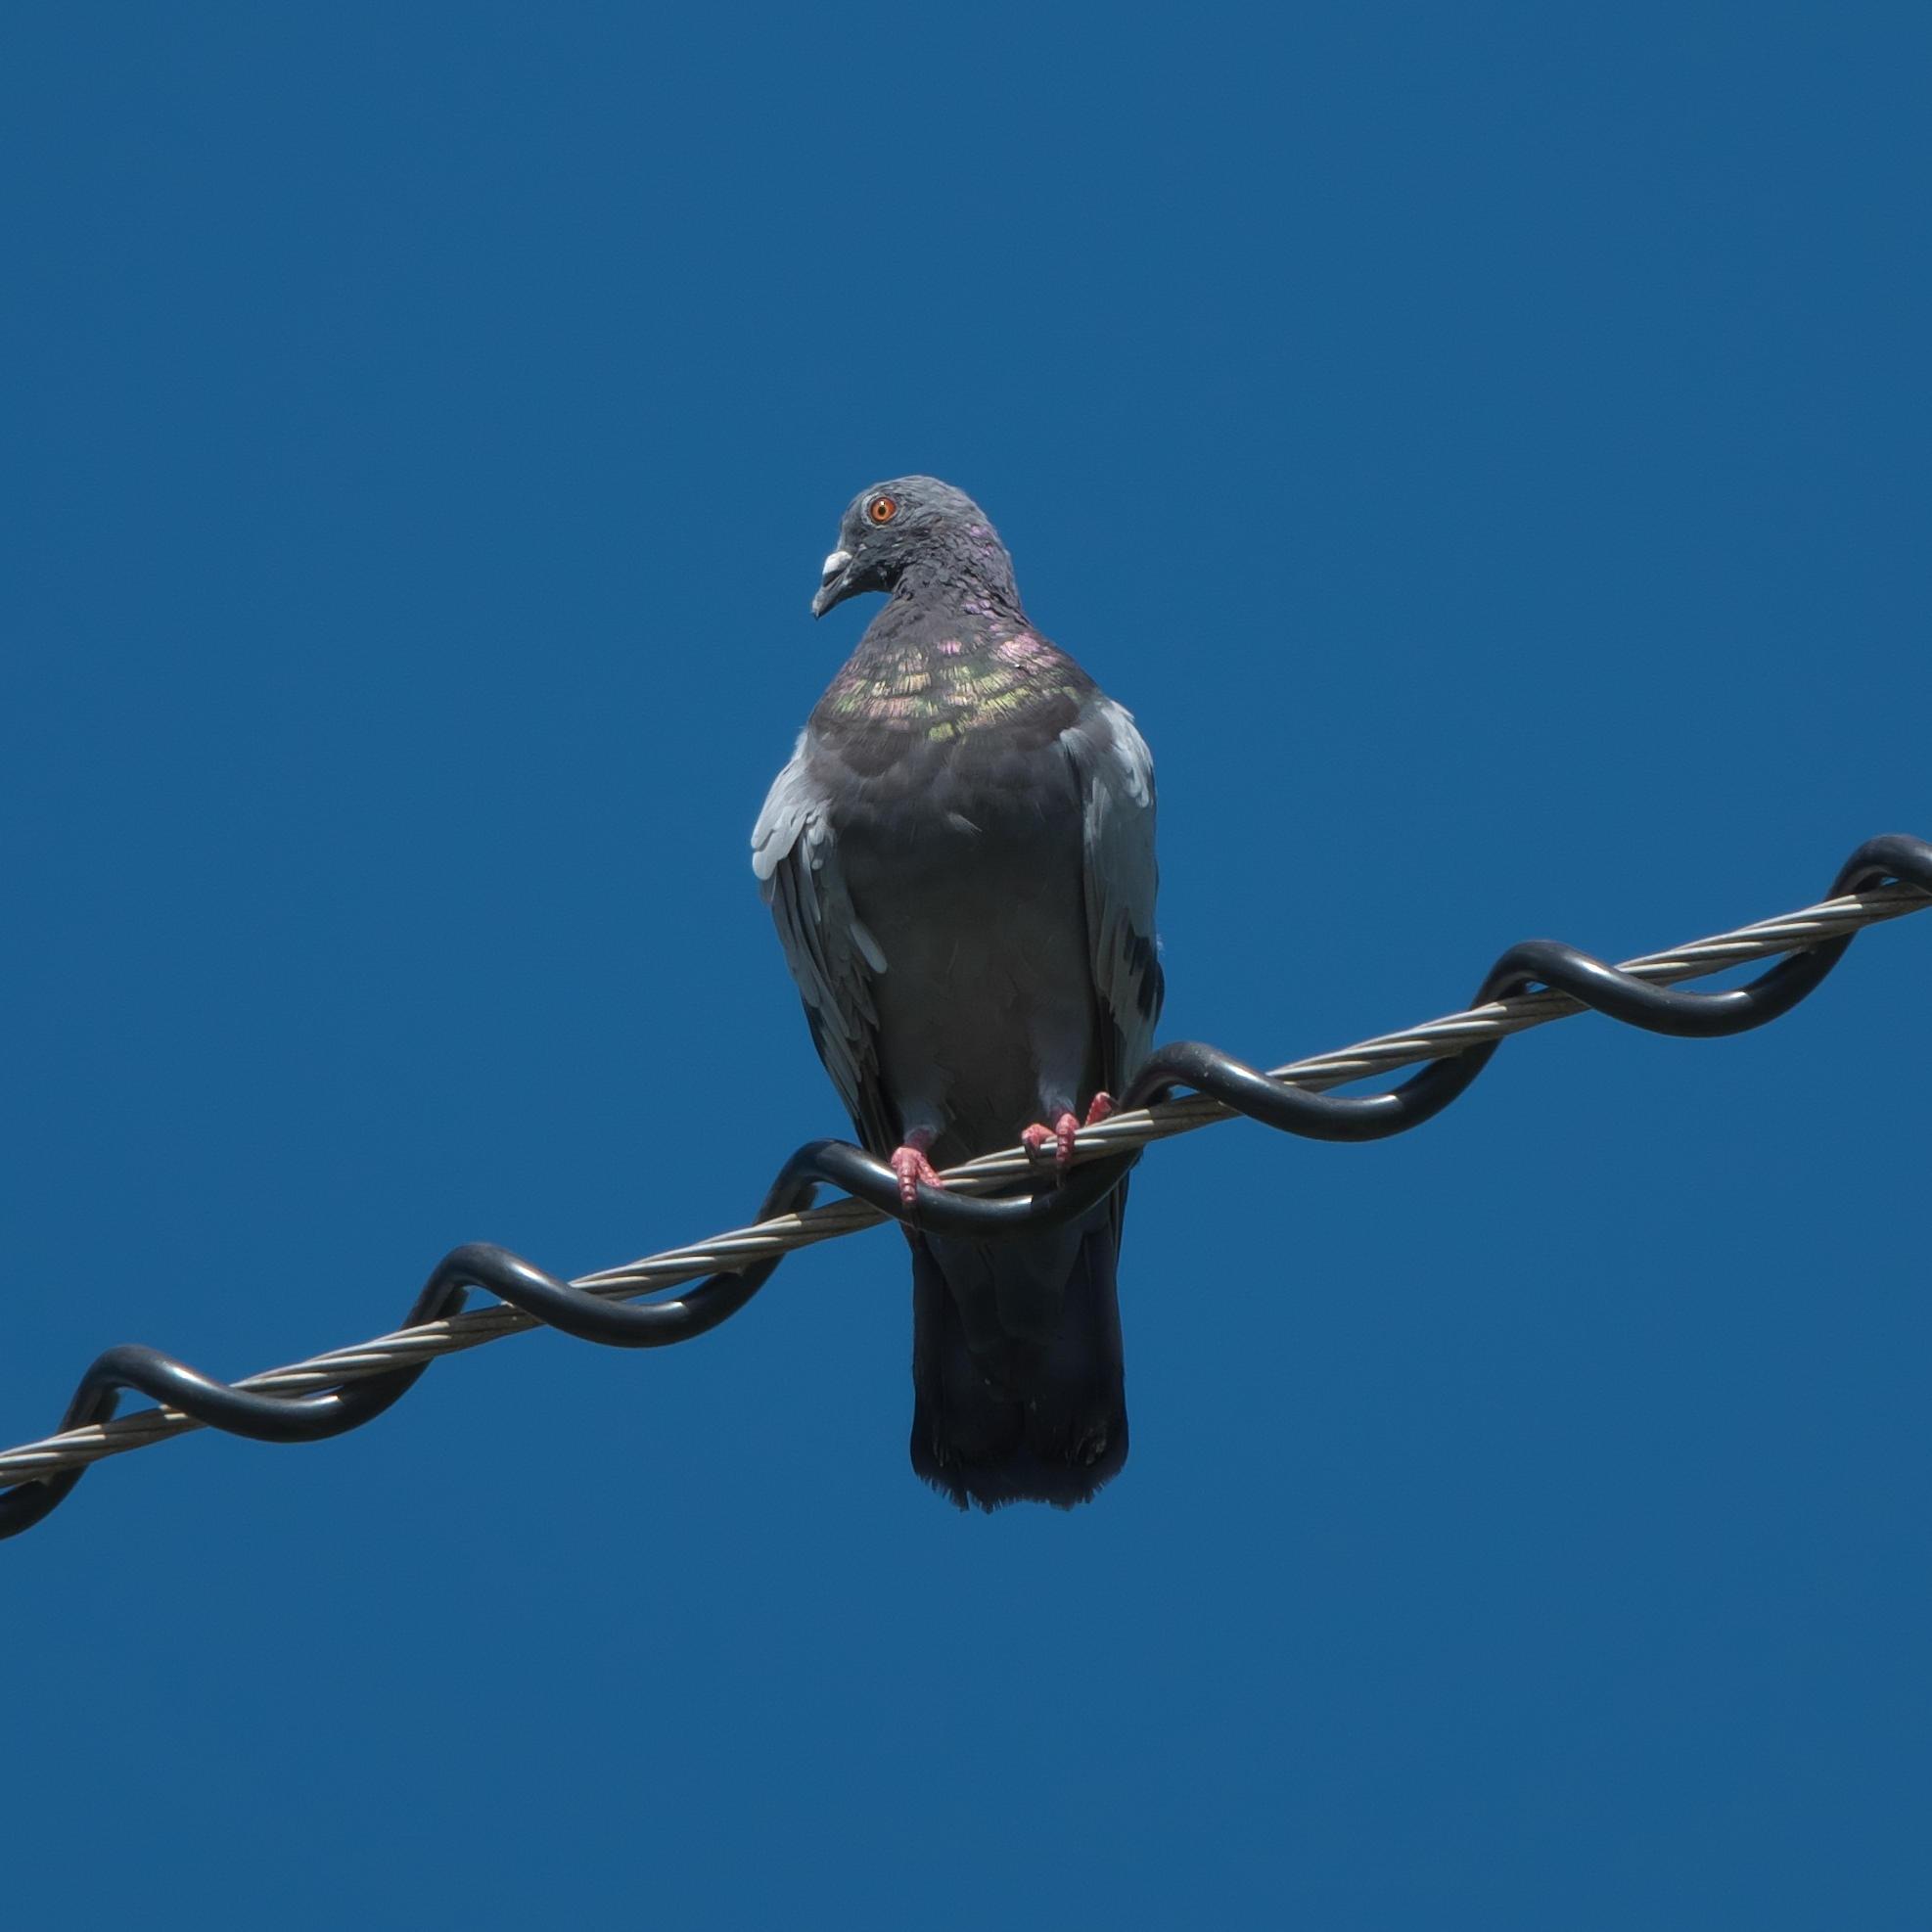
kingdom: Animalia
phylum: Chordata
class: Aves
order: Columbiformes
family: Columbidae
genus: Columba
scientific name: Columba livia
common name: Rock pigeon
